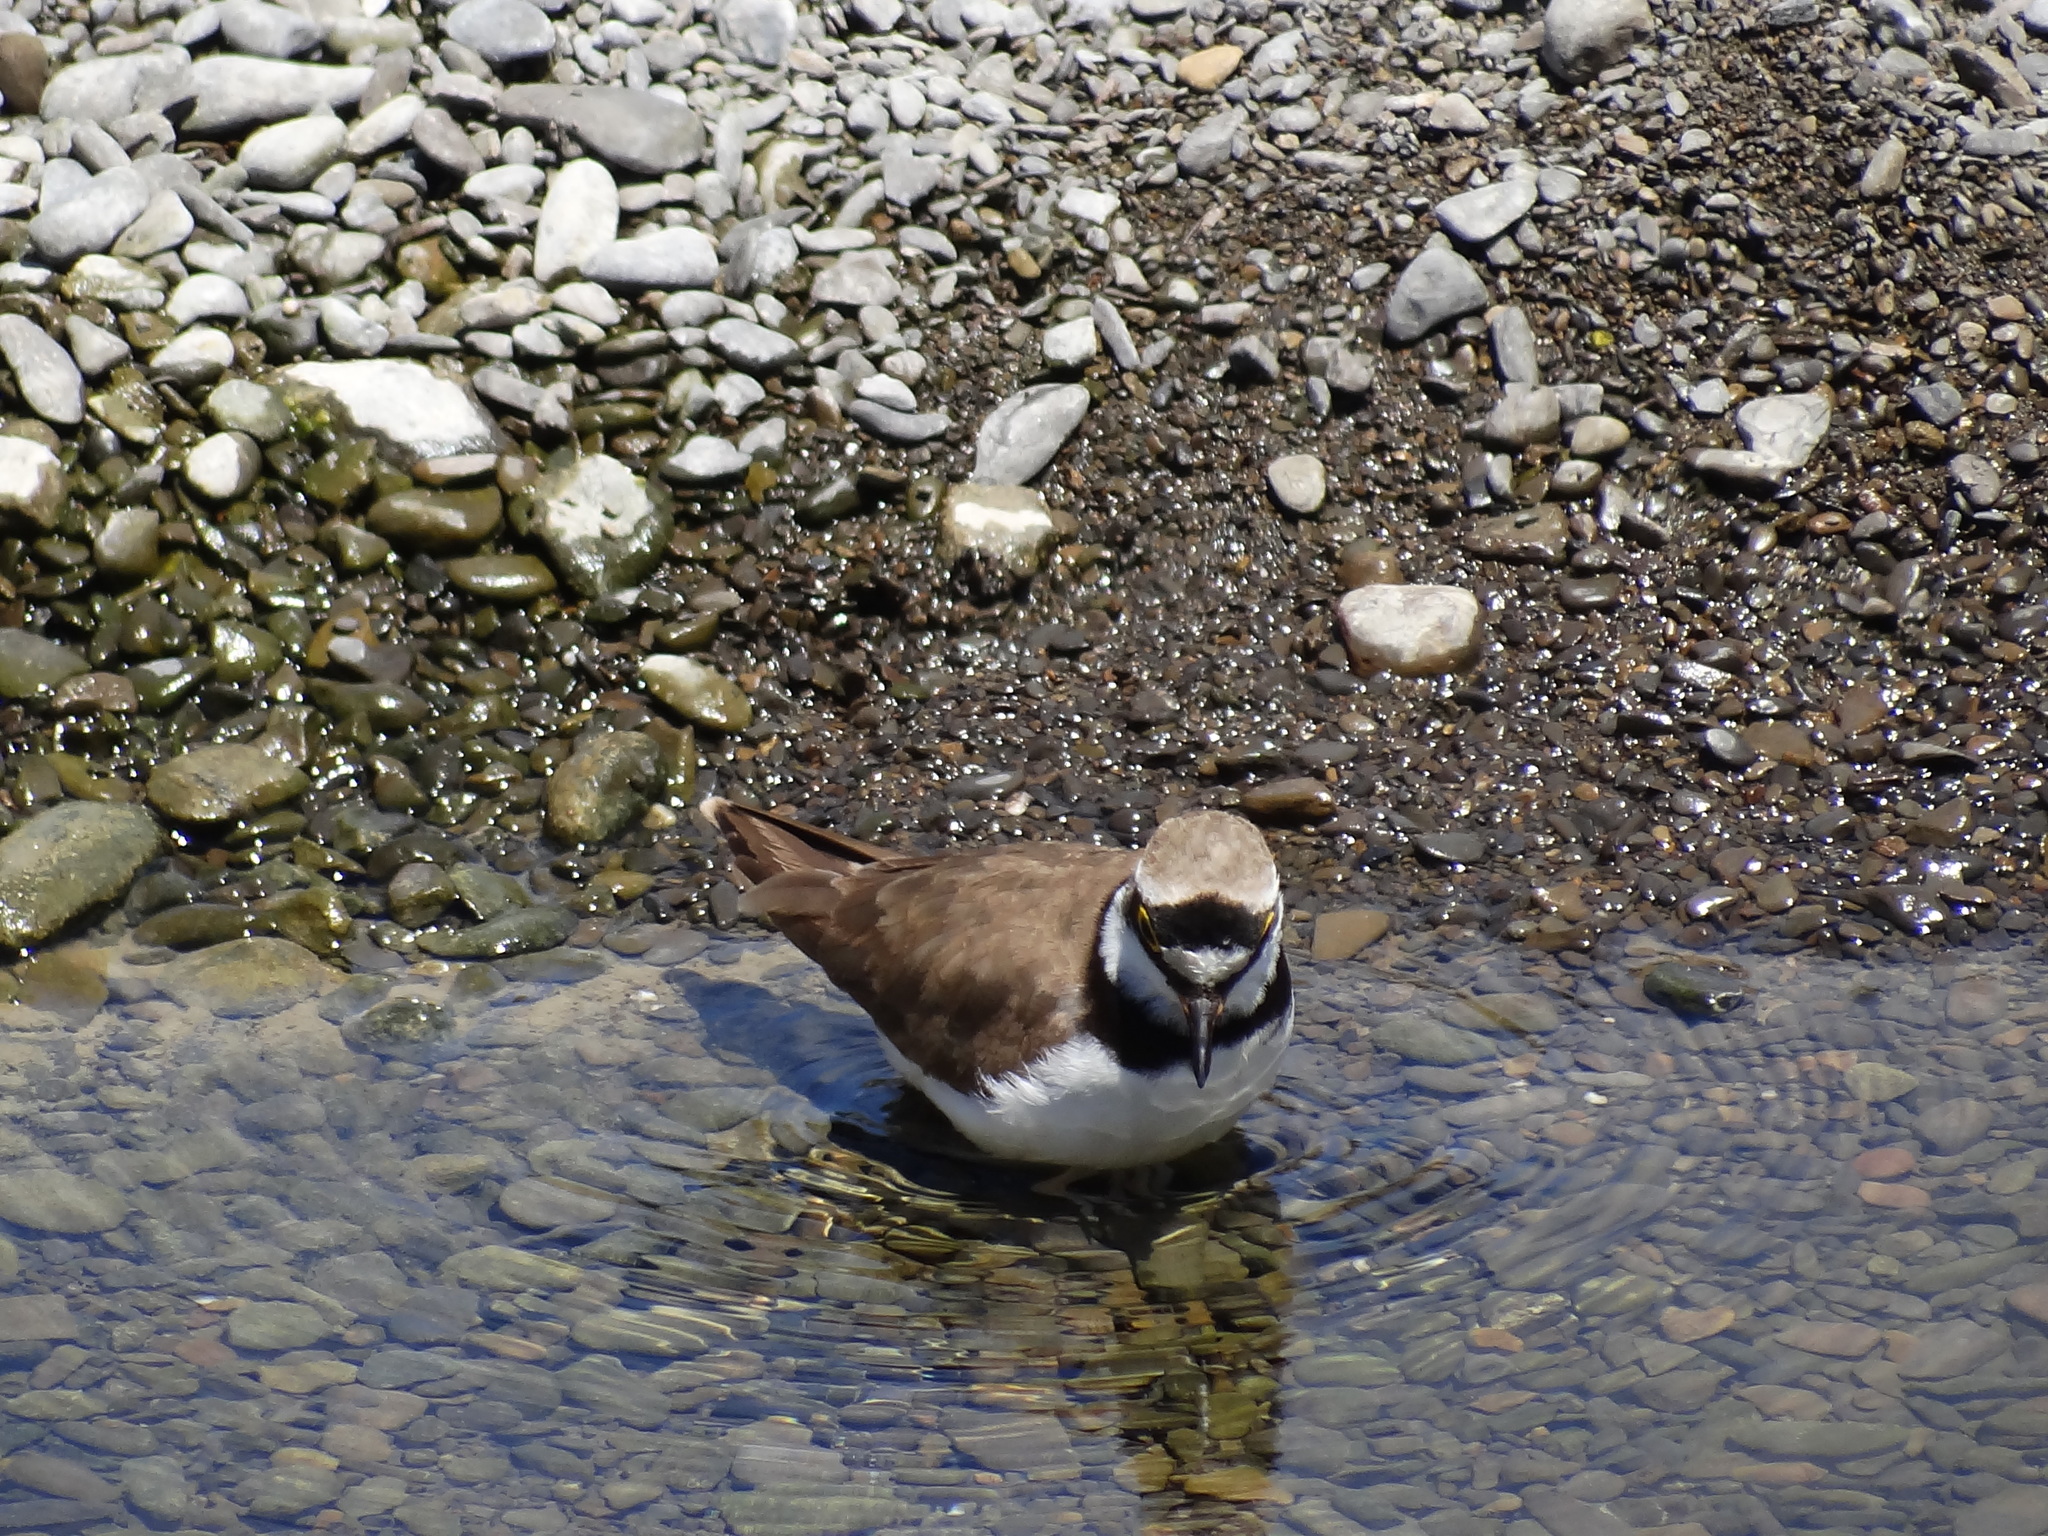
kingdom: Animalia
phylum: Chordata
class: Aves
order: Charadriiformes
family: Charadriidae
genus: Charadrius
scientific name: Charadrius dubius
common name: Little ringed plover
